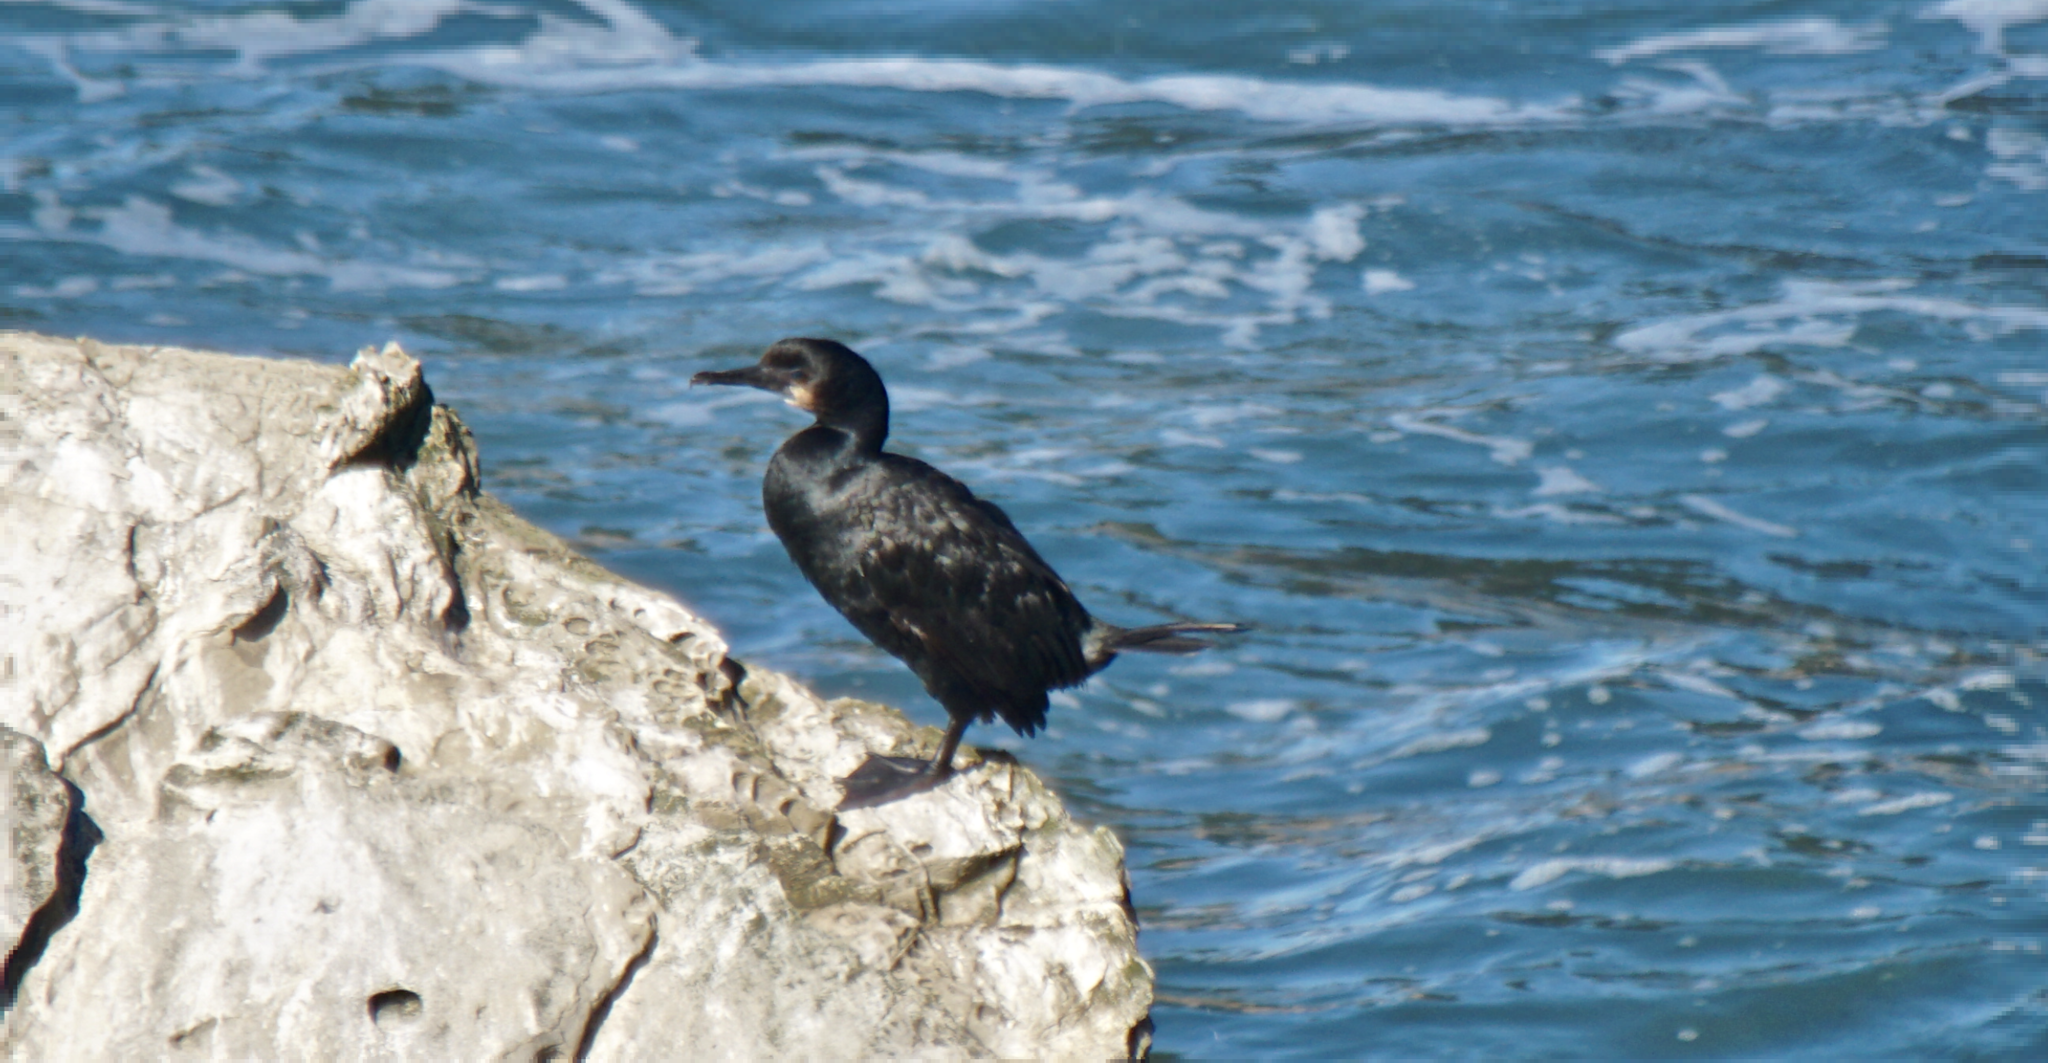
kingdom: Animalia
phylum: Chordata
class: Aves
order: Suliformes
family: Phalacrocoracidae
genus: Urile
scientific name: Urile penicillatus
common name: Brandt's cormorant
